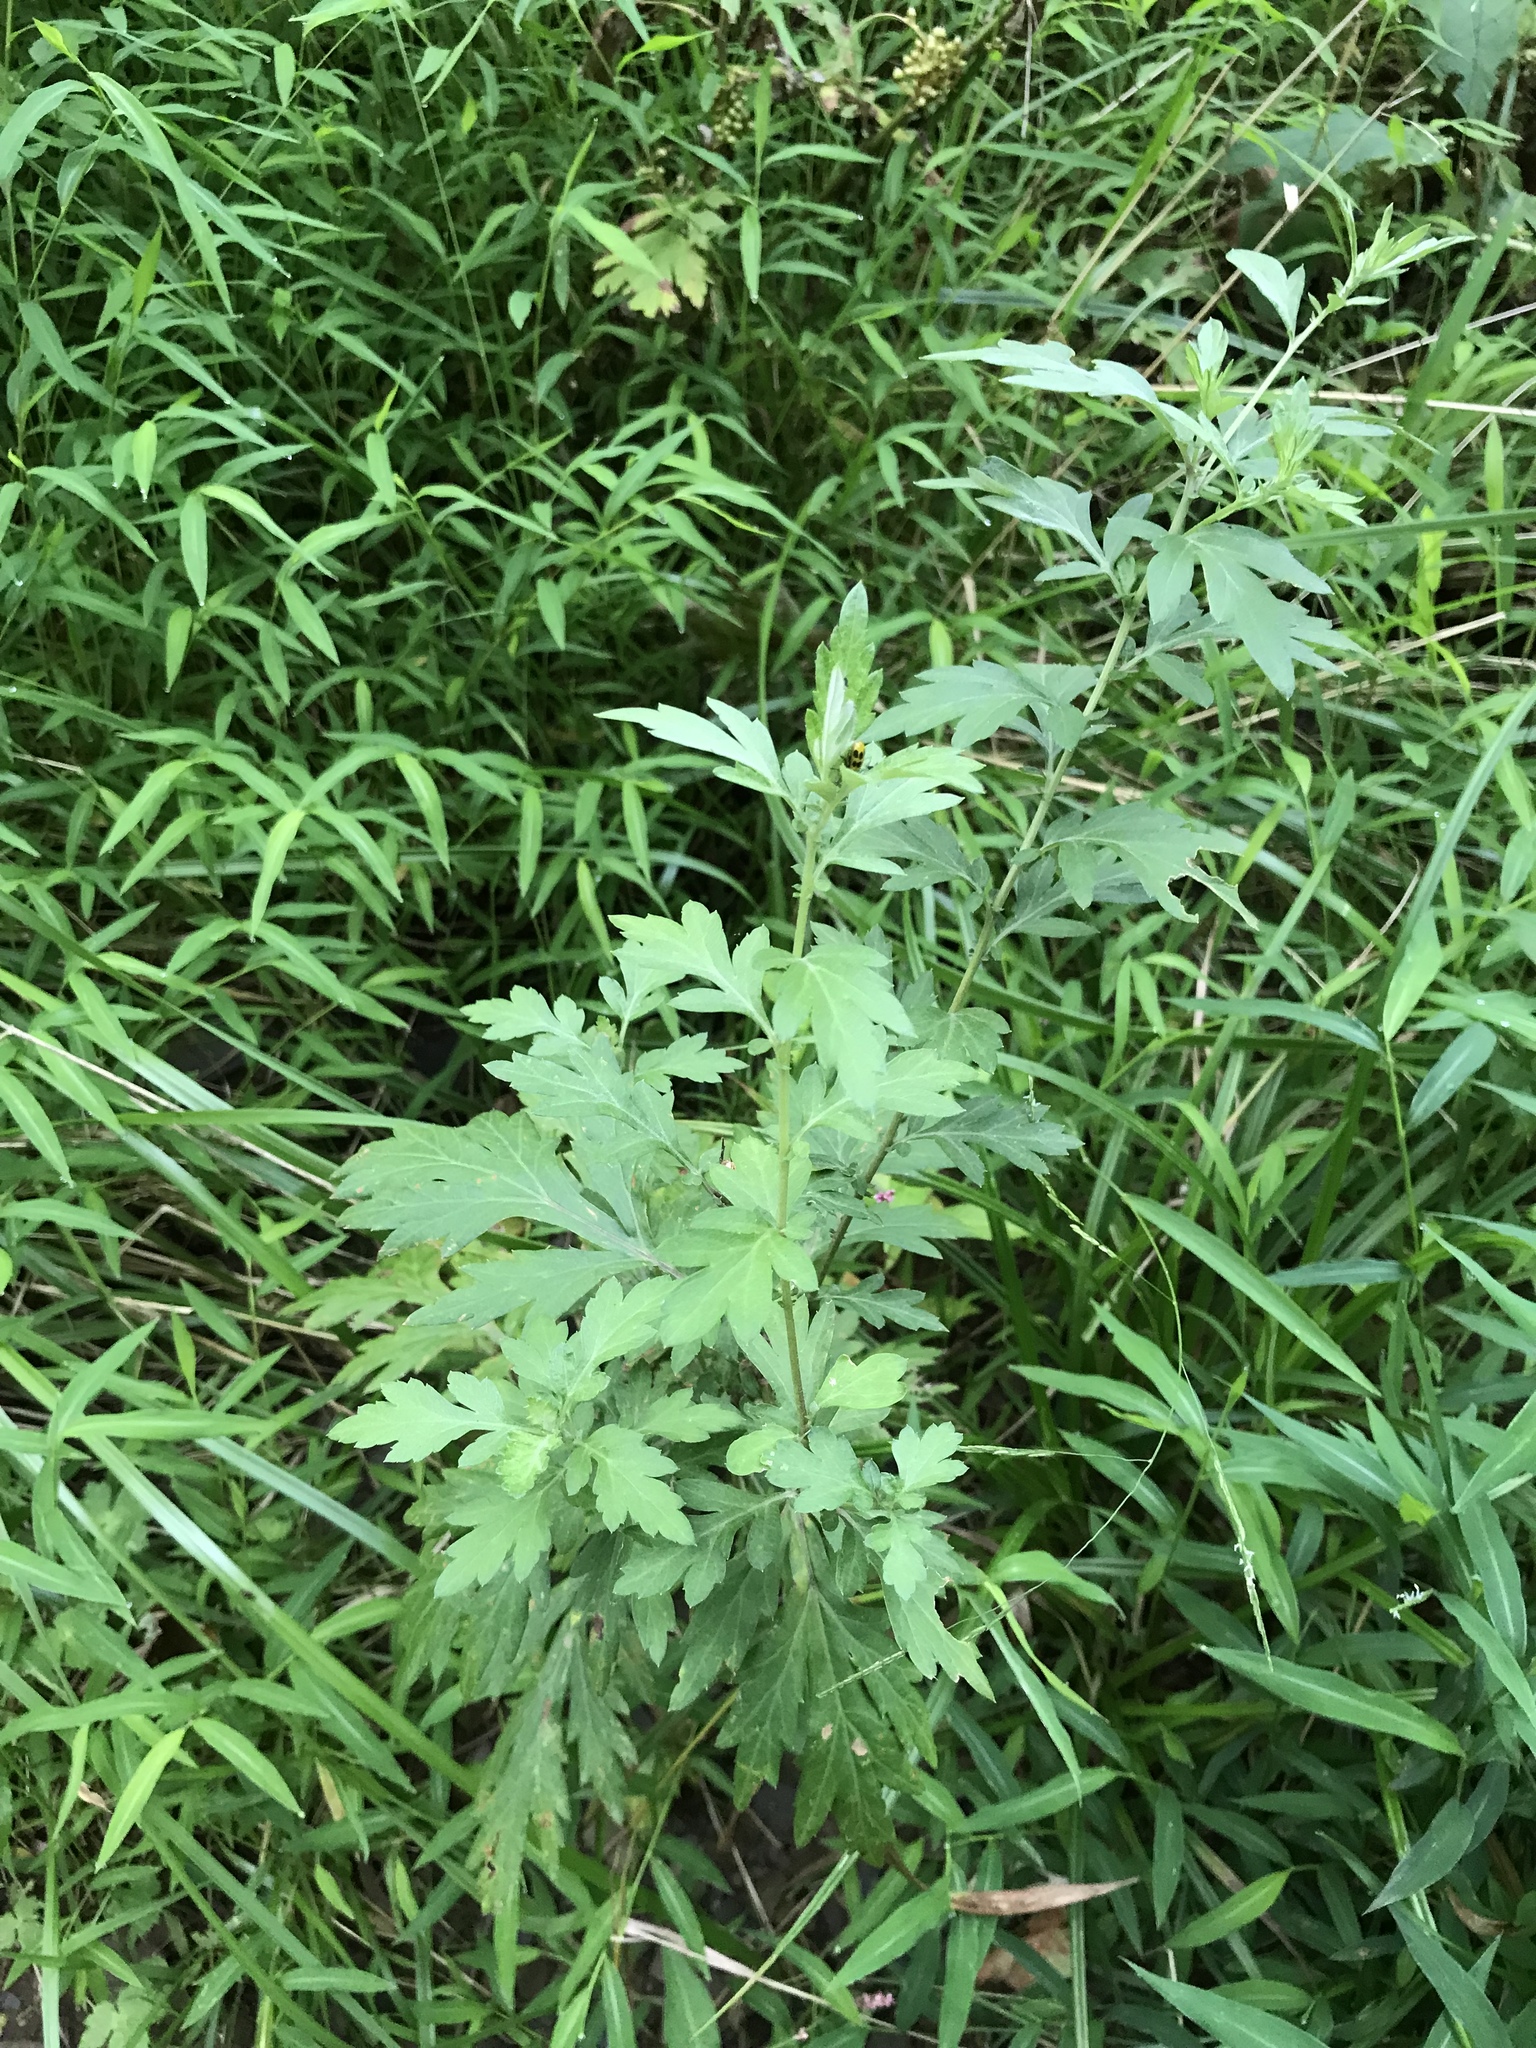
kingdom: Plantae
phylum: Tracheophyta
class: Magnoliopsida
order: Asterales
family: Asteraceae
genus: Artemisia
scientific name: Artemisia vulgaris
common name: Mugwort
